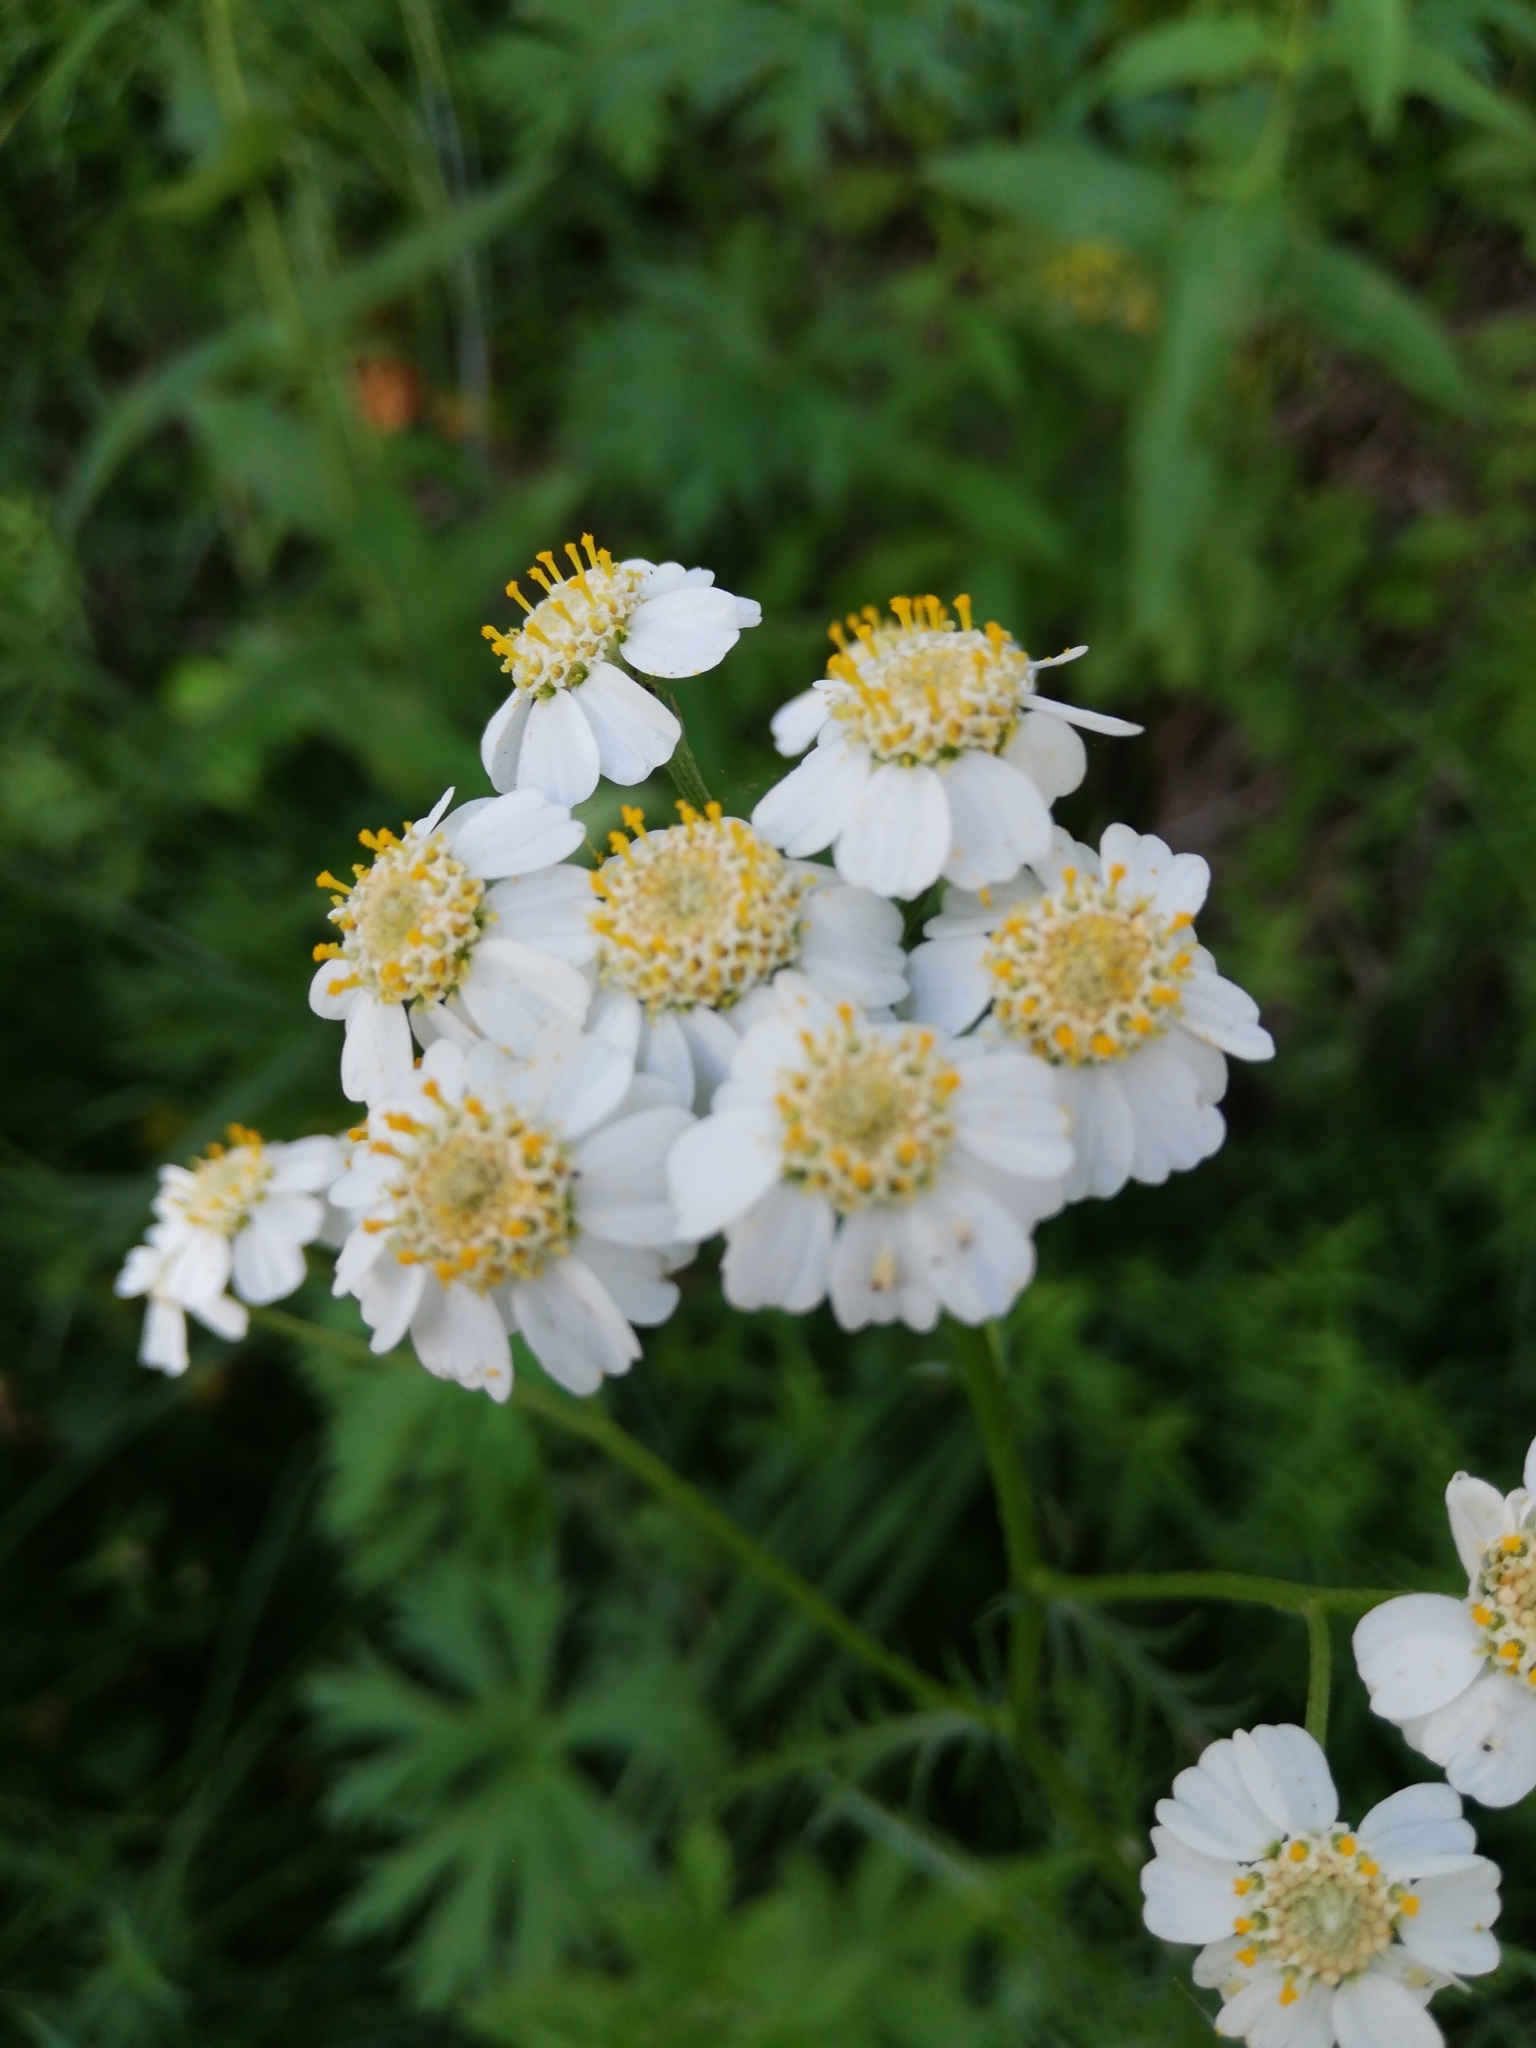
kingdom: Plantae
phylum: Tracheophyta
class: Magnoliopsida
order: Asterales
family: Asteraceae
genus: Achillea
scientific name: Achillea impatiens
